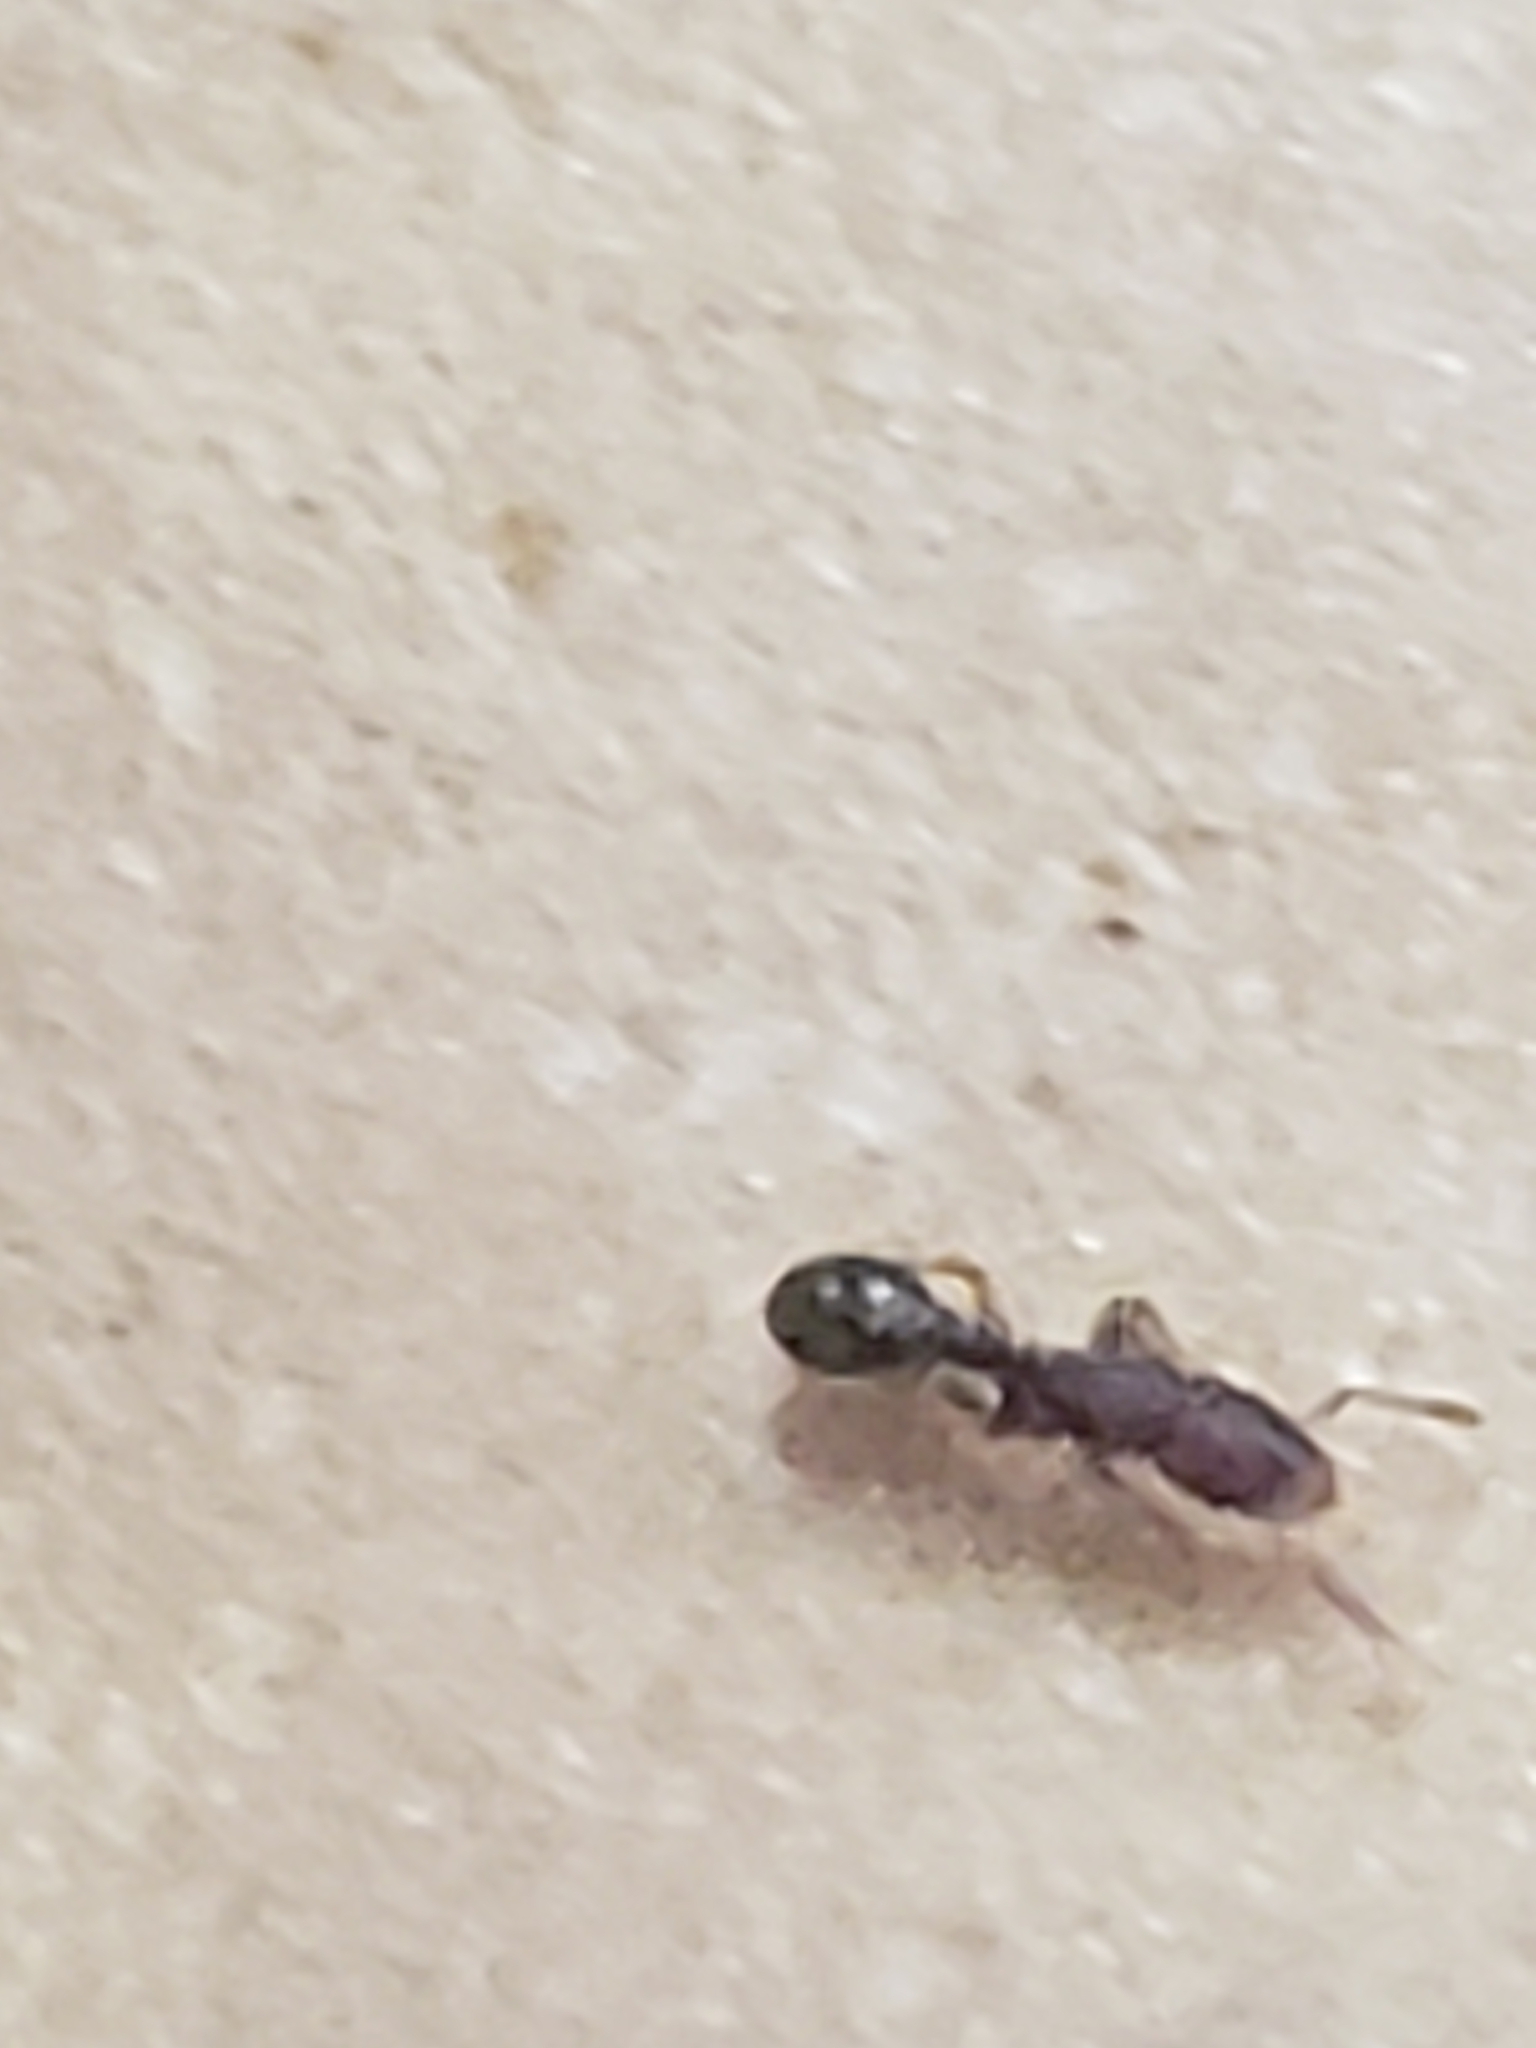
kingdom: Animalia
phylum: Arthropoda
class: Insecta
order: Hymenoptera
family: Formicidae
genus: Vollenhovia
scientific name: Vollenhovia emeryi
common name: Ant
